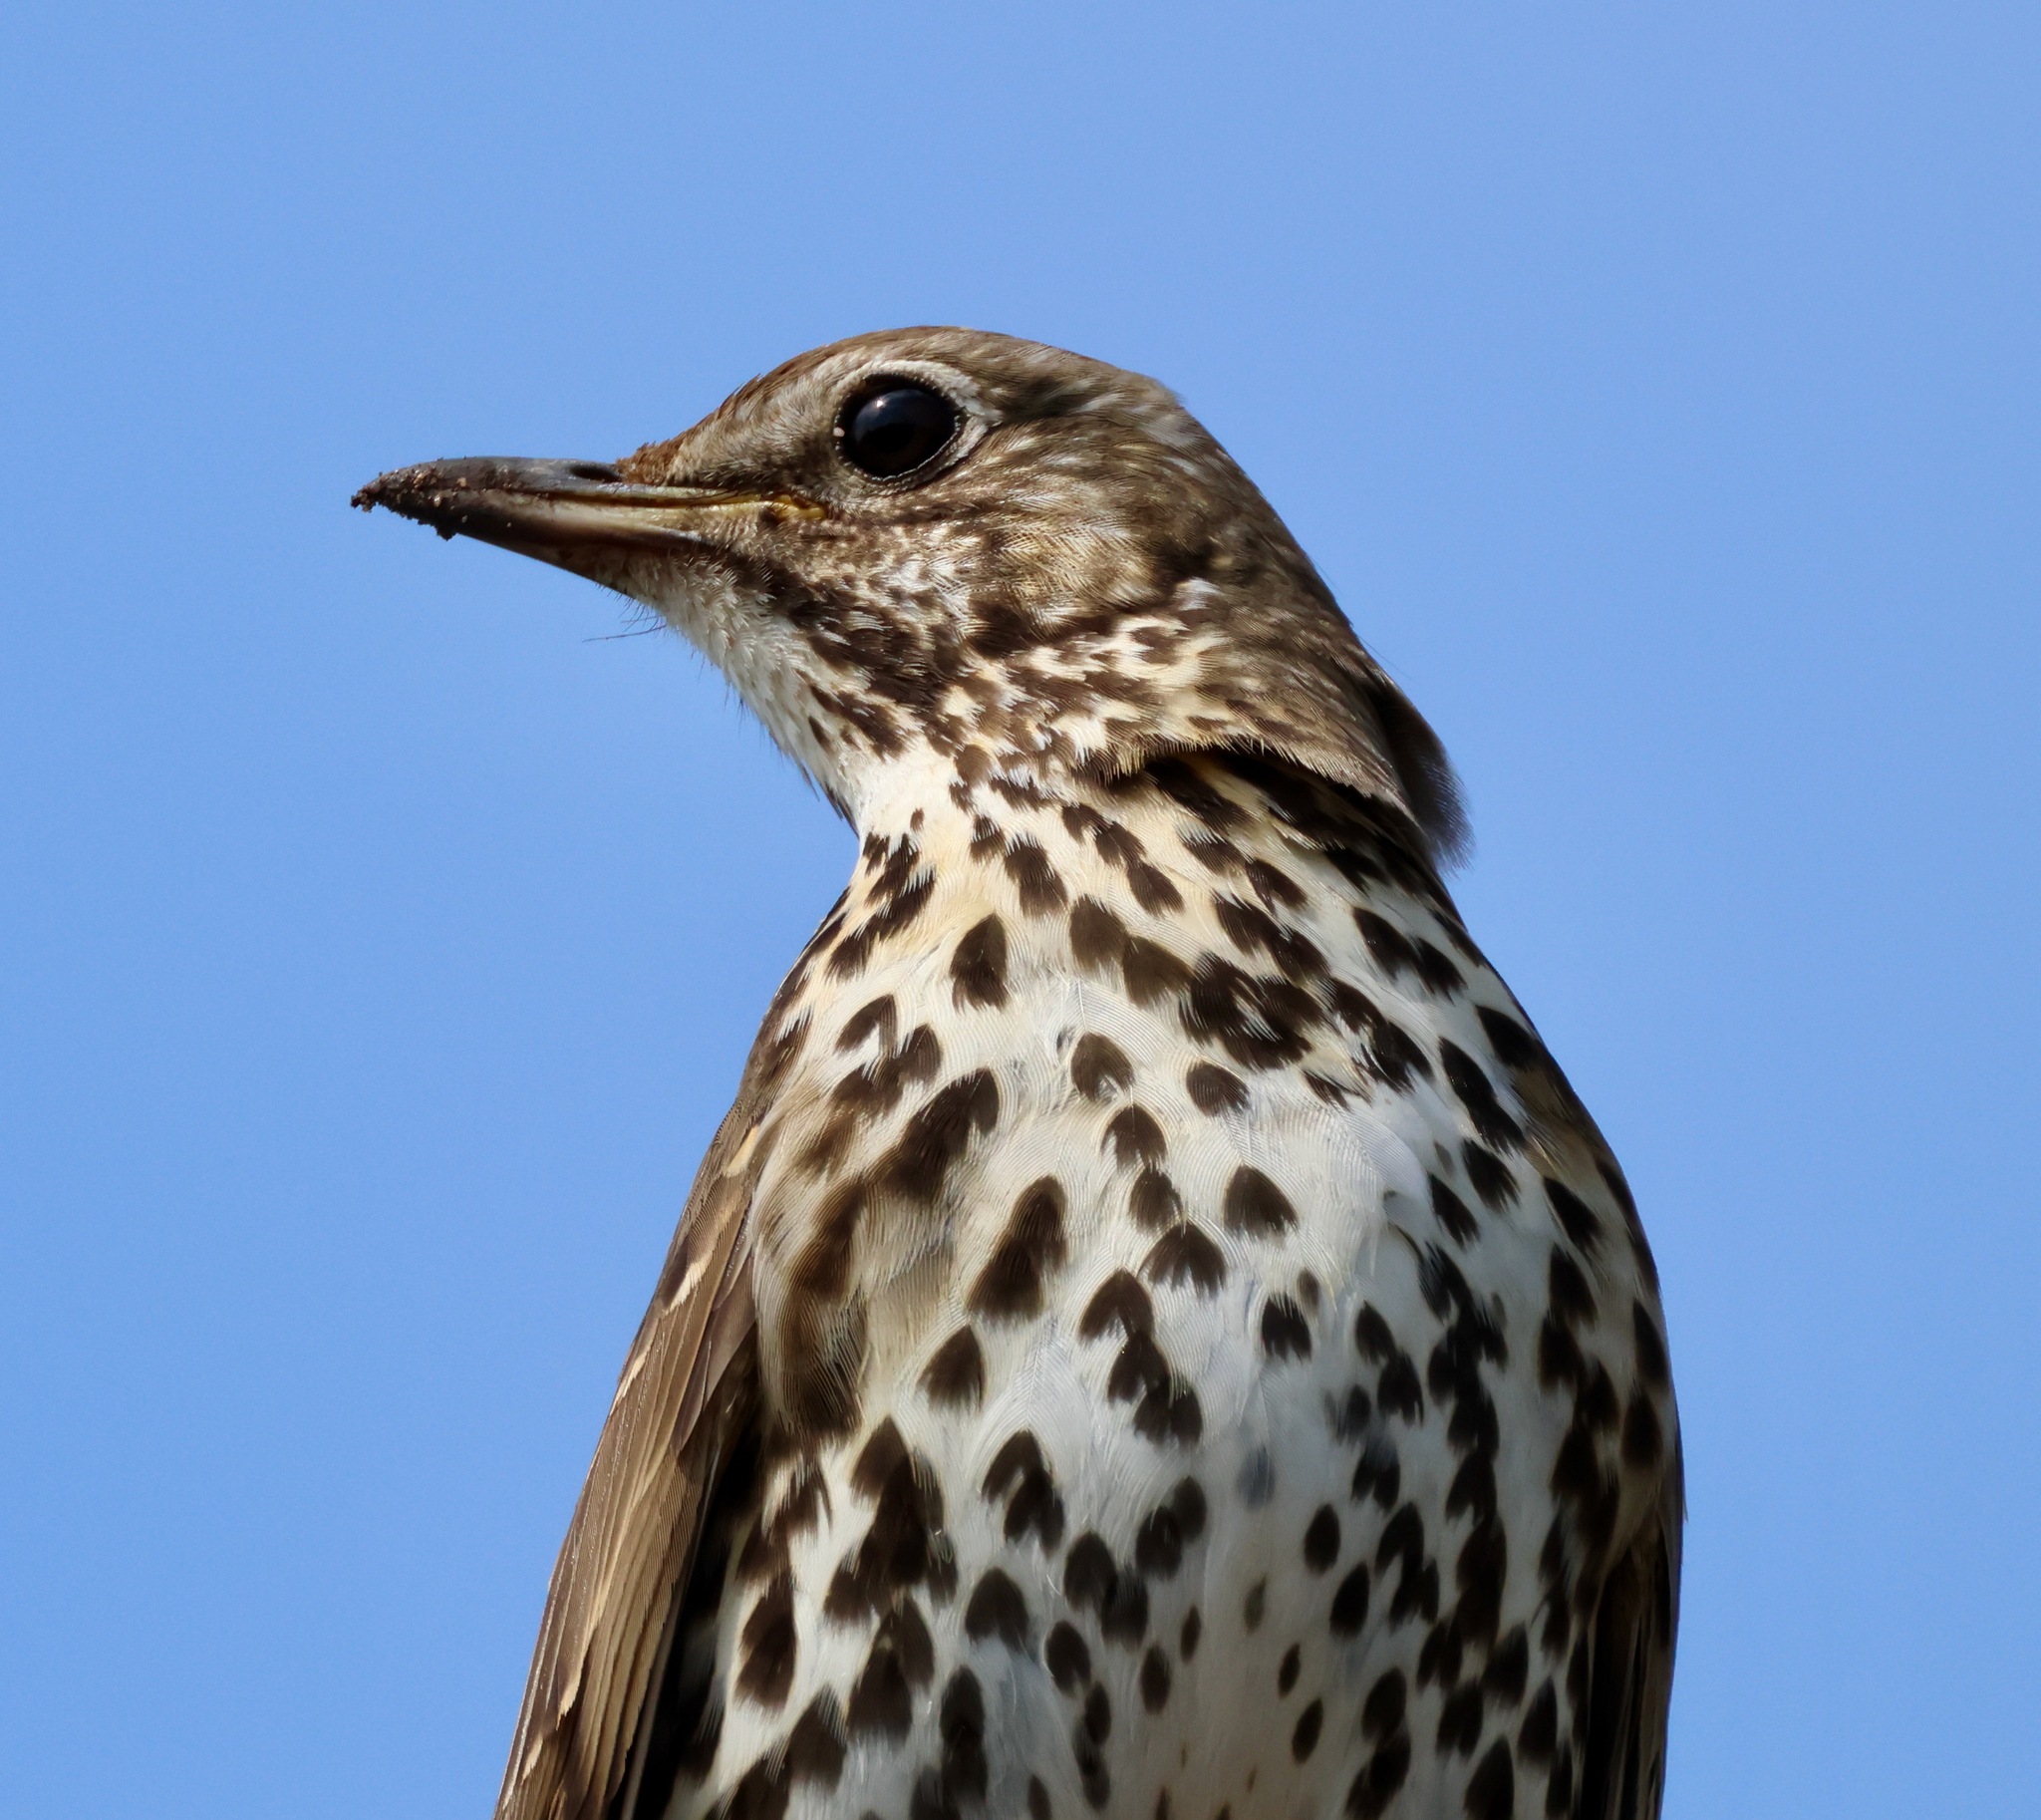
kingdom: Animalia
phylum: Chordata
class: Aves
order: Passeriformes
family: Turdidae
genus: Turdus
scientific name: Turdus philomelos
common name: Song thrush
